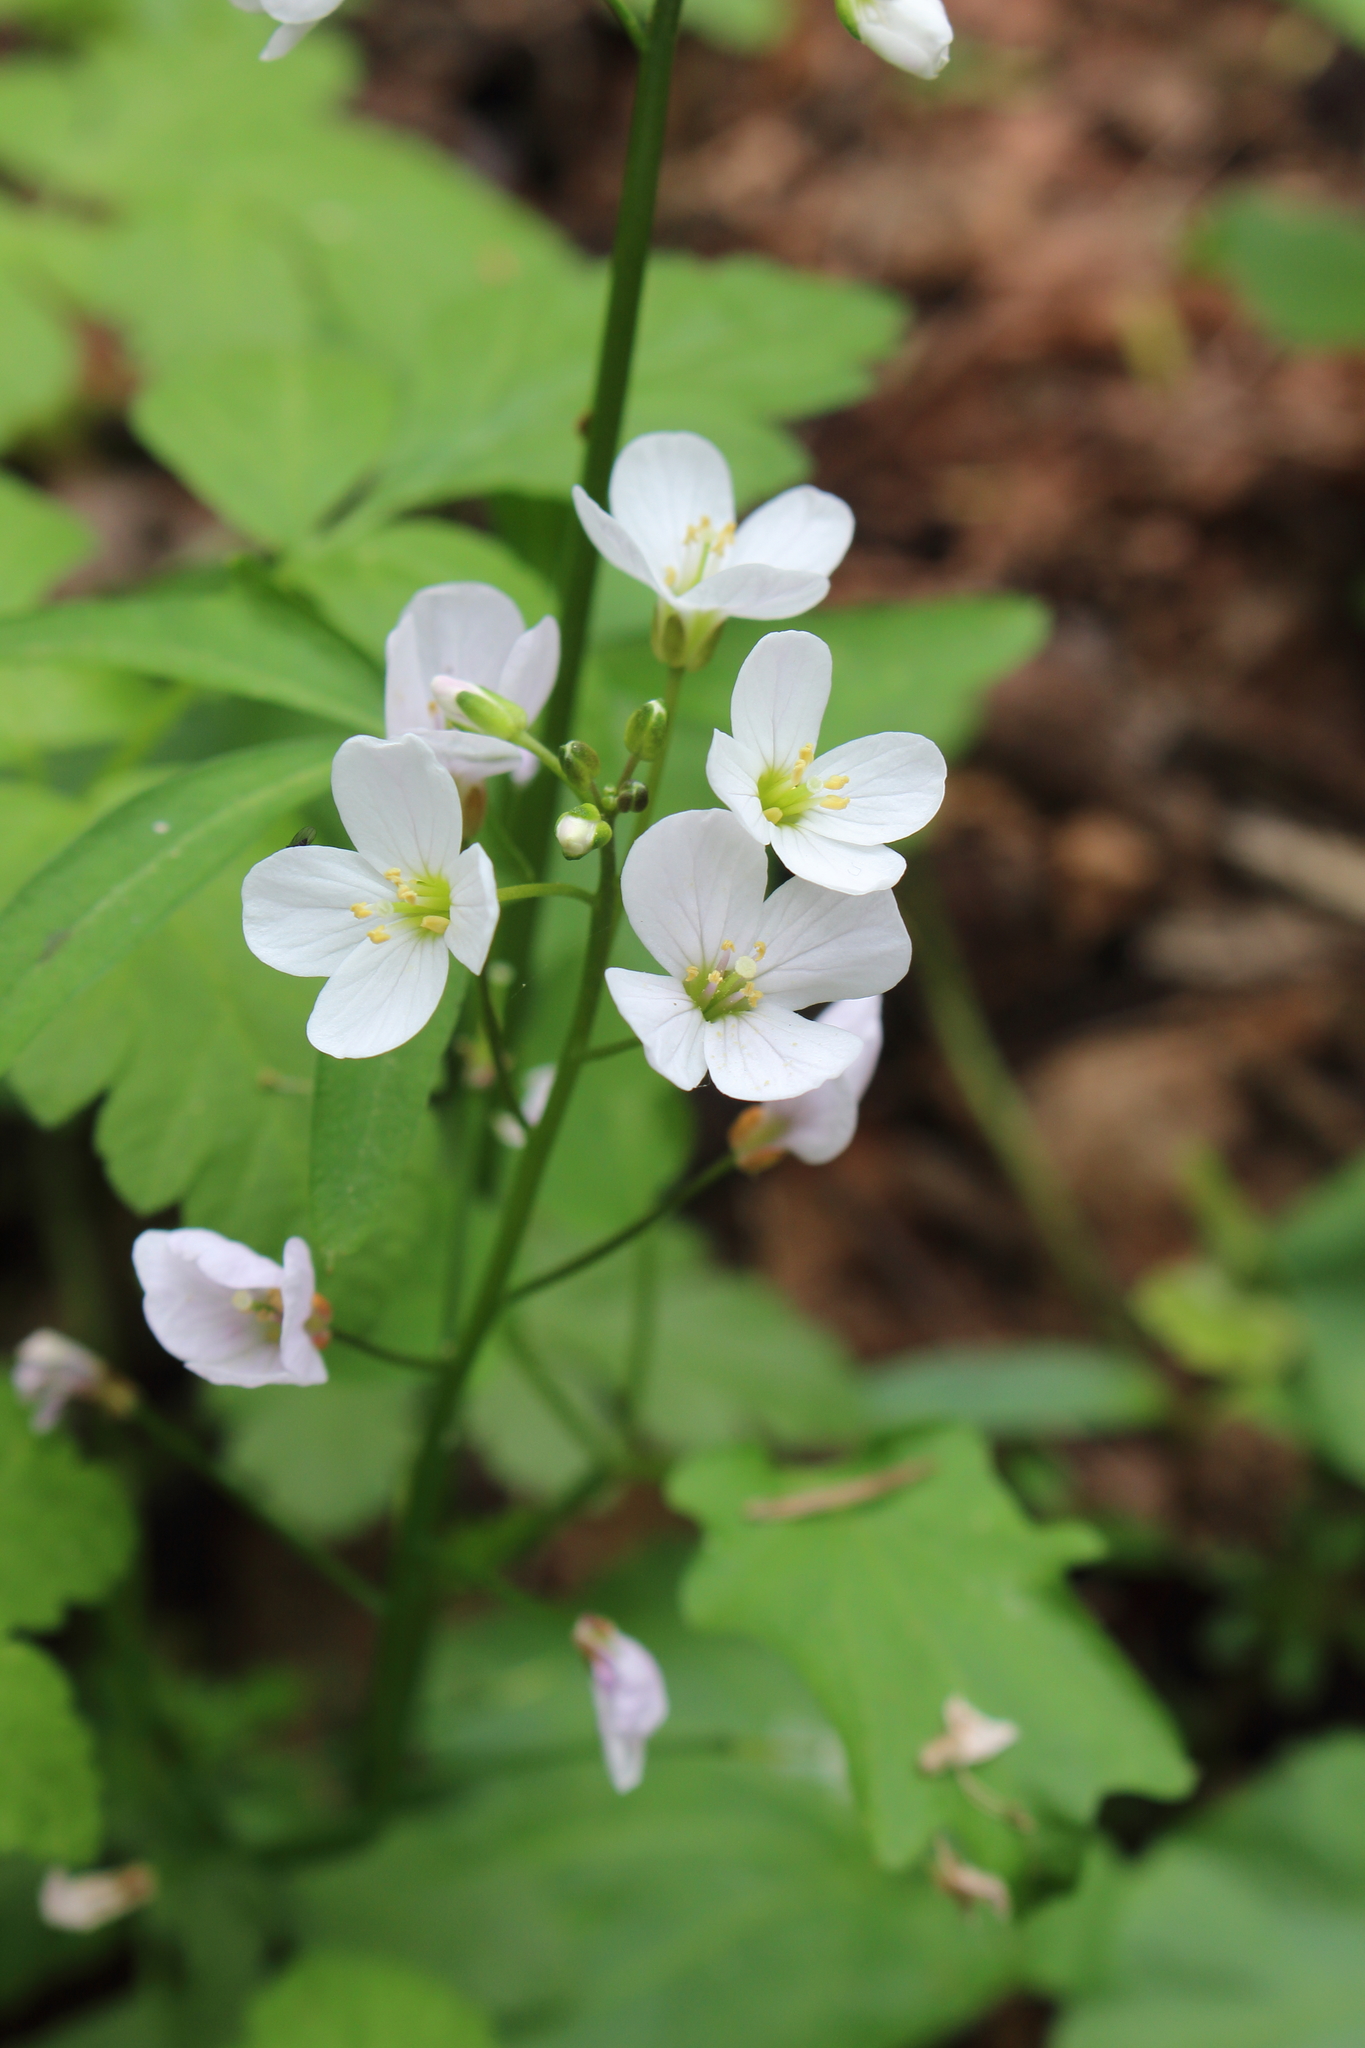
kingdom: Plantae
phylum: Tracheophyta
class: Magnoliopsida
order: Brassicales
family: Brassicaceae
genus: Cardamine
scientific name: Cardamine californica
